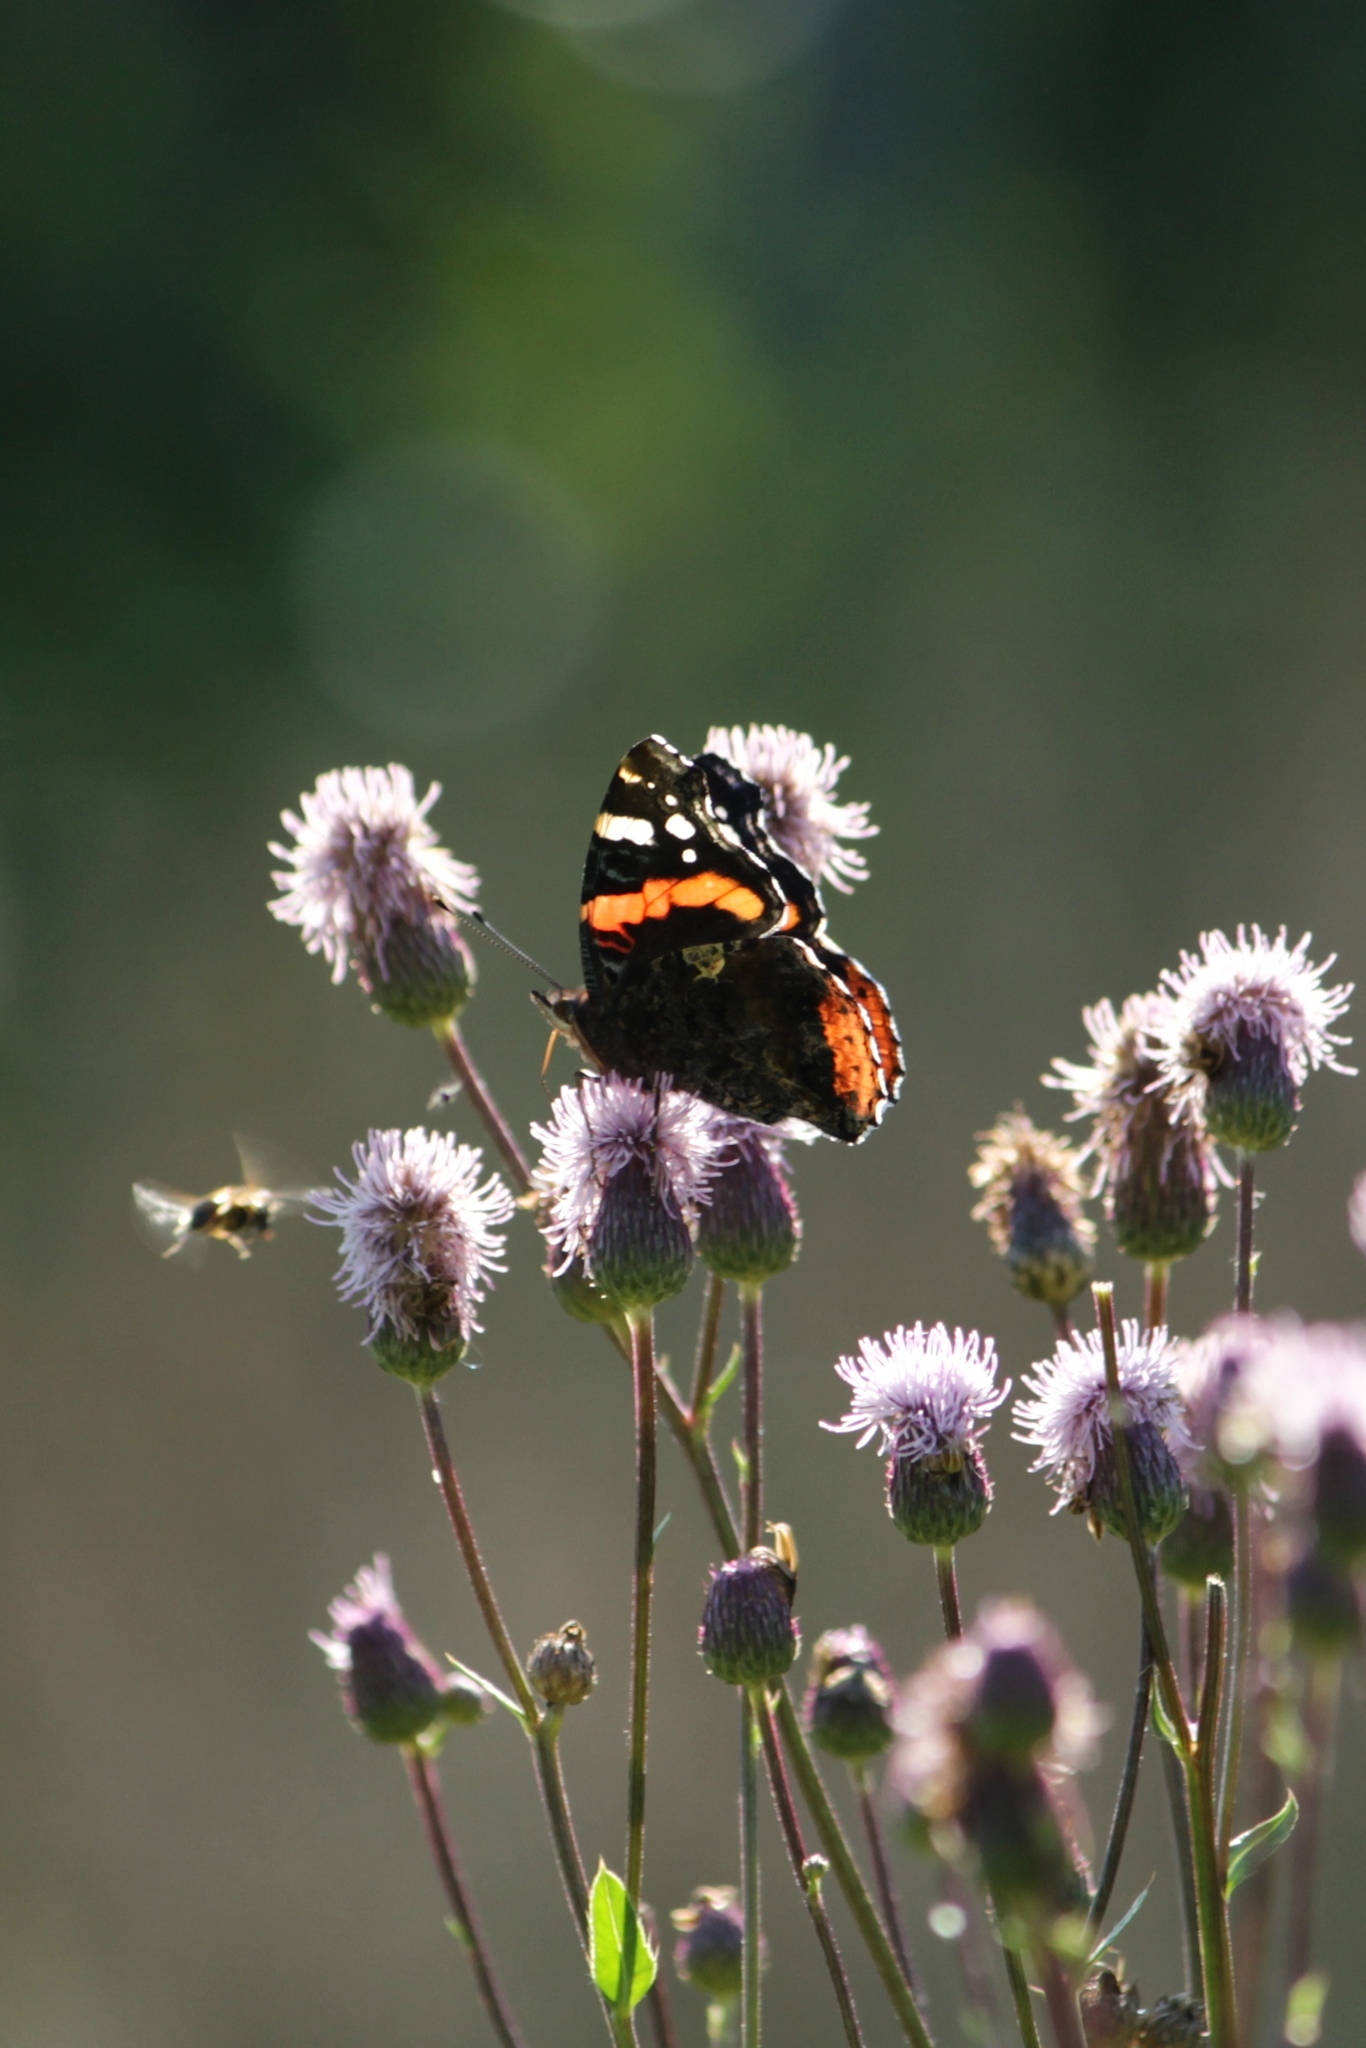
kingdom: Animalia
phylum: Arthropoda
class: Insecta
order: Lepidoptera
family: Nymphalidae
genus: Vanessa
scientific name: Vanessa atalanta
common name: Red admiral
